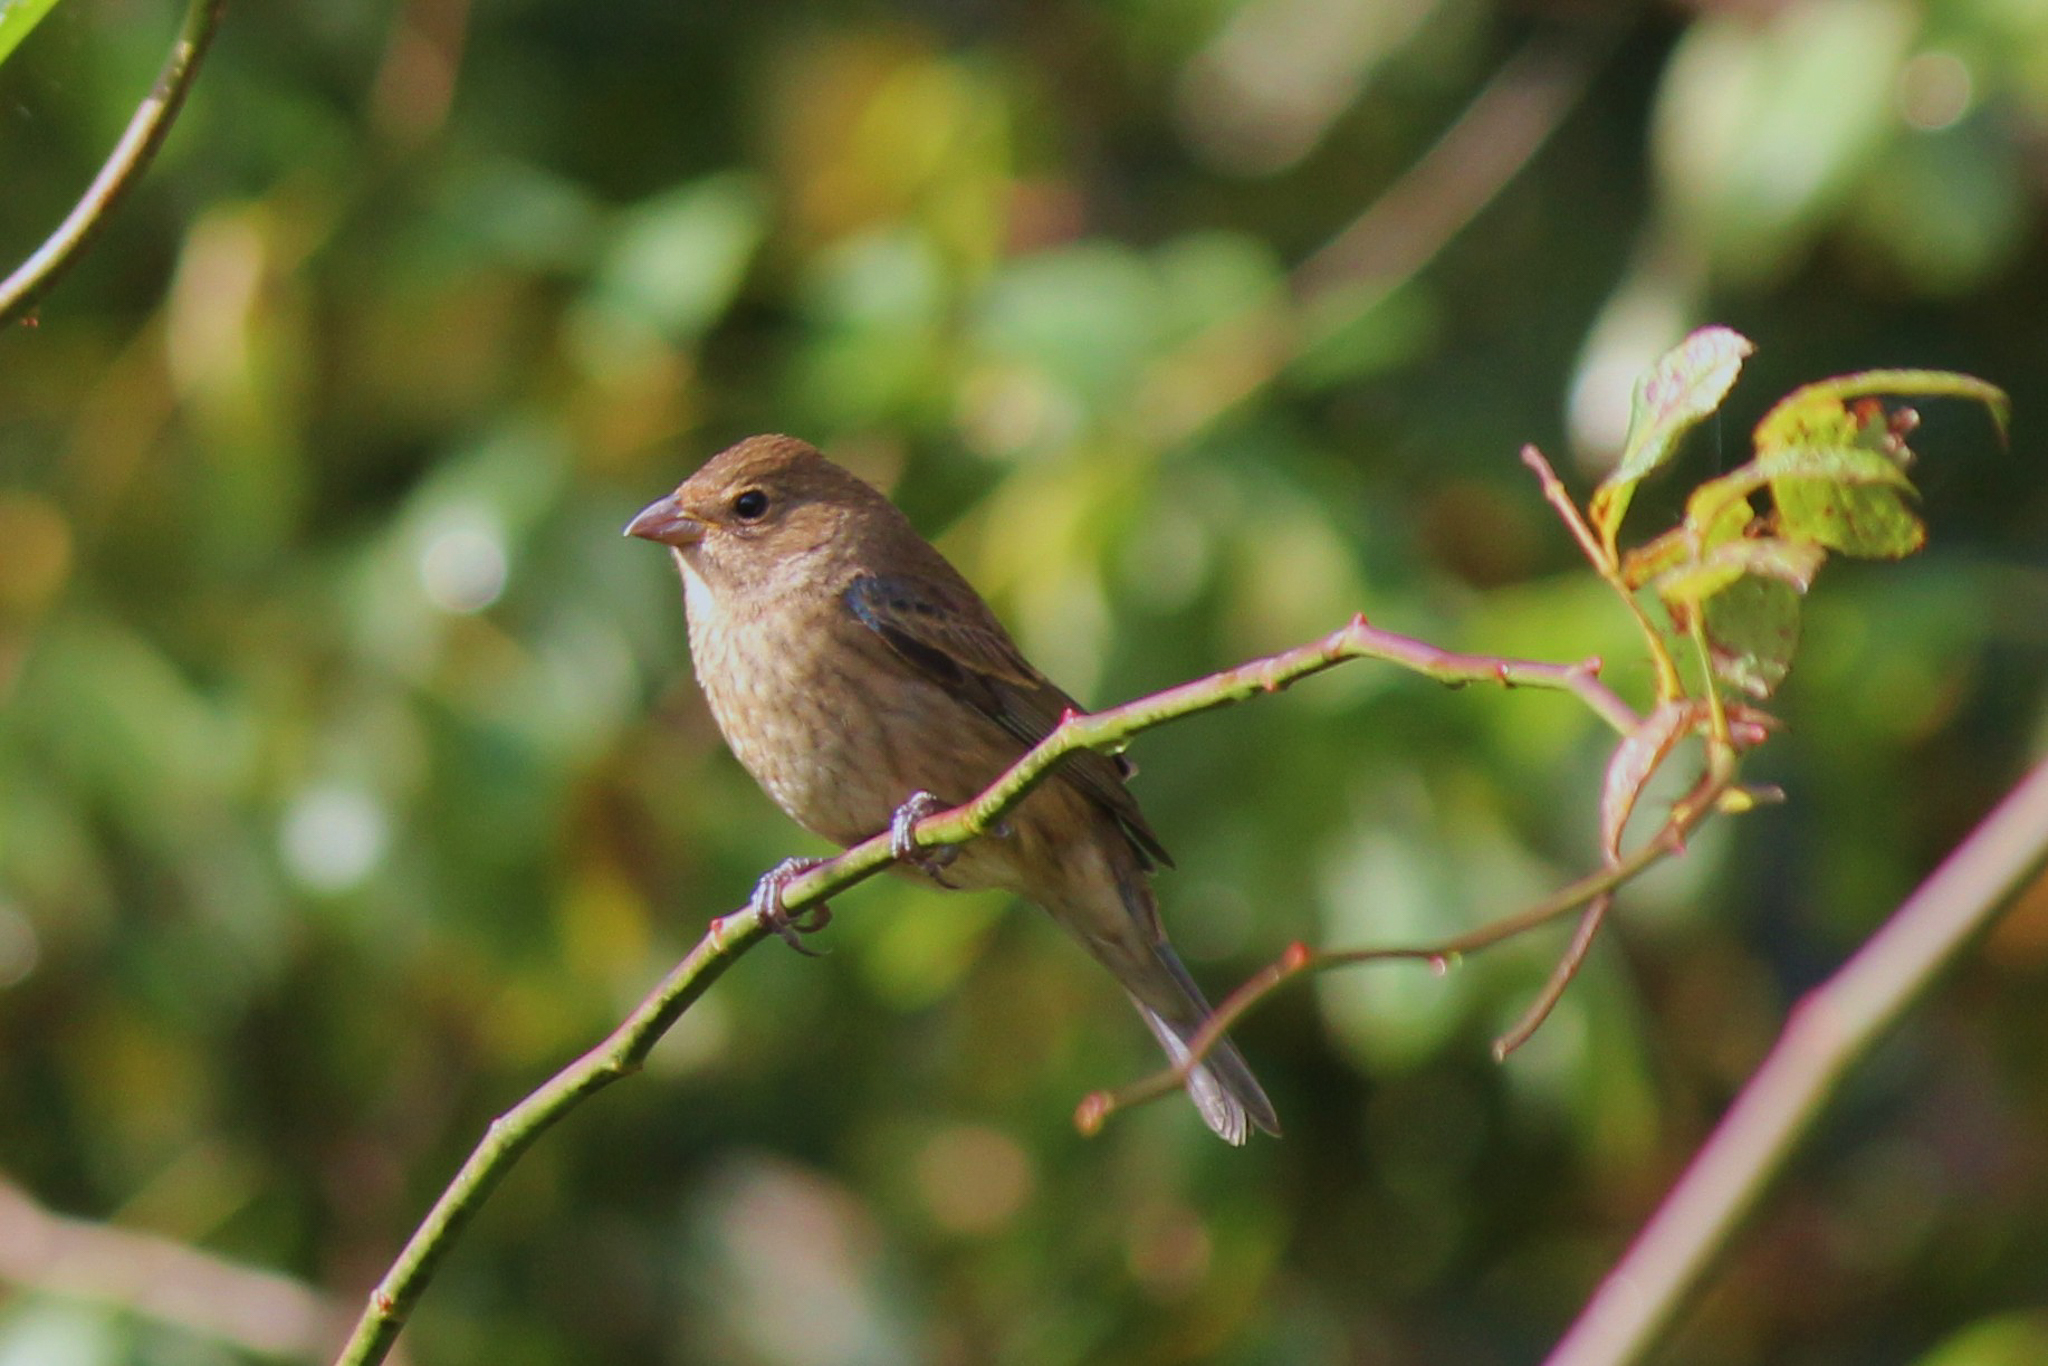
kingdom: Animalia
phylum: Chordata
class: Aves
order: Passeriformes
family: Cardinalidae
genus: Passerina
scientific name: Passerina cyanea
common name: Indigo bunting
